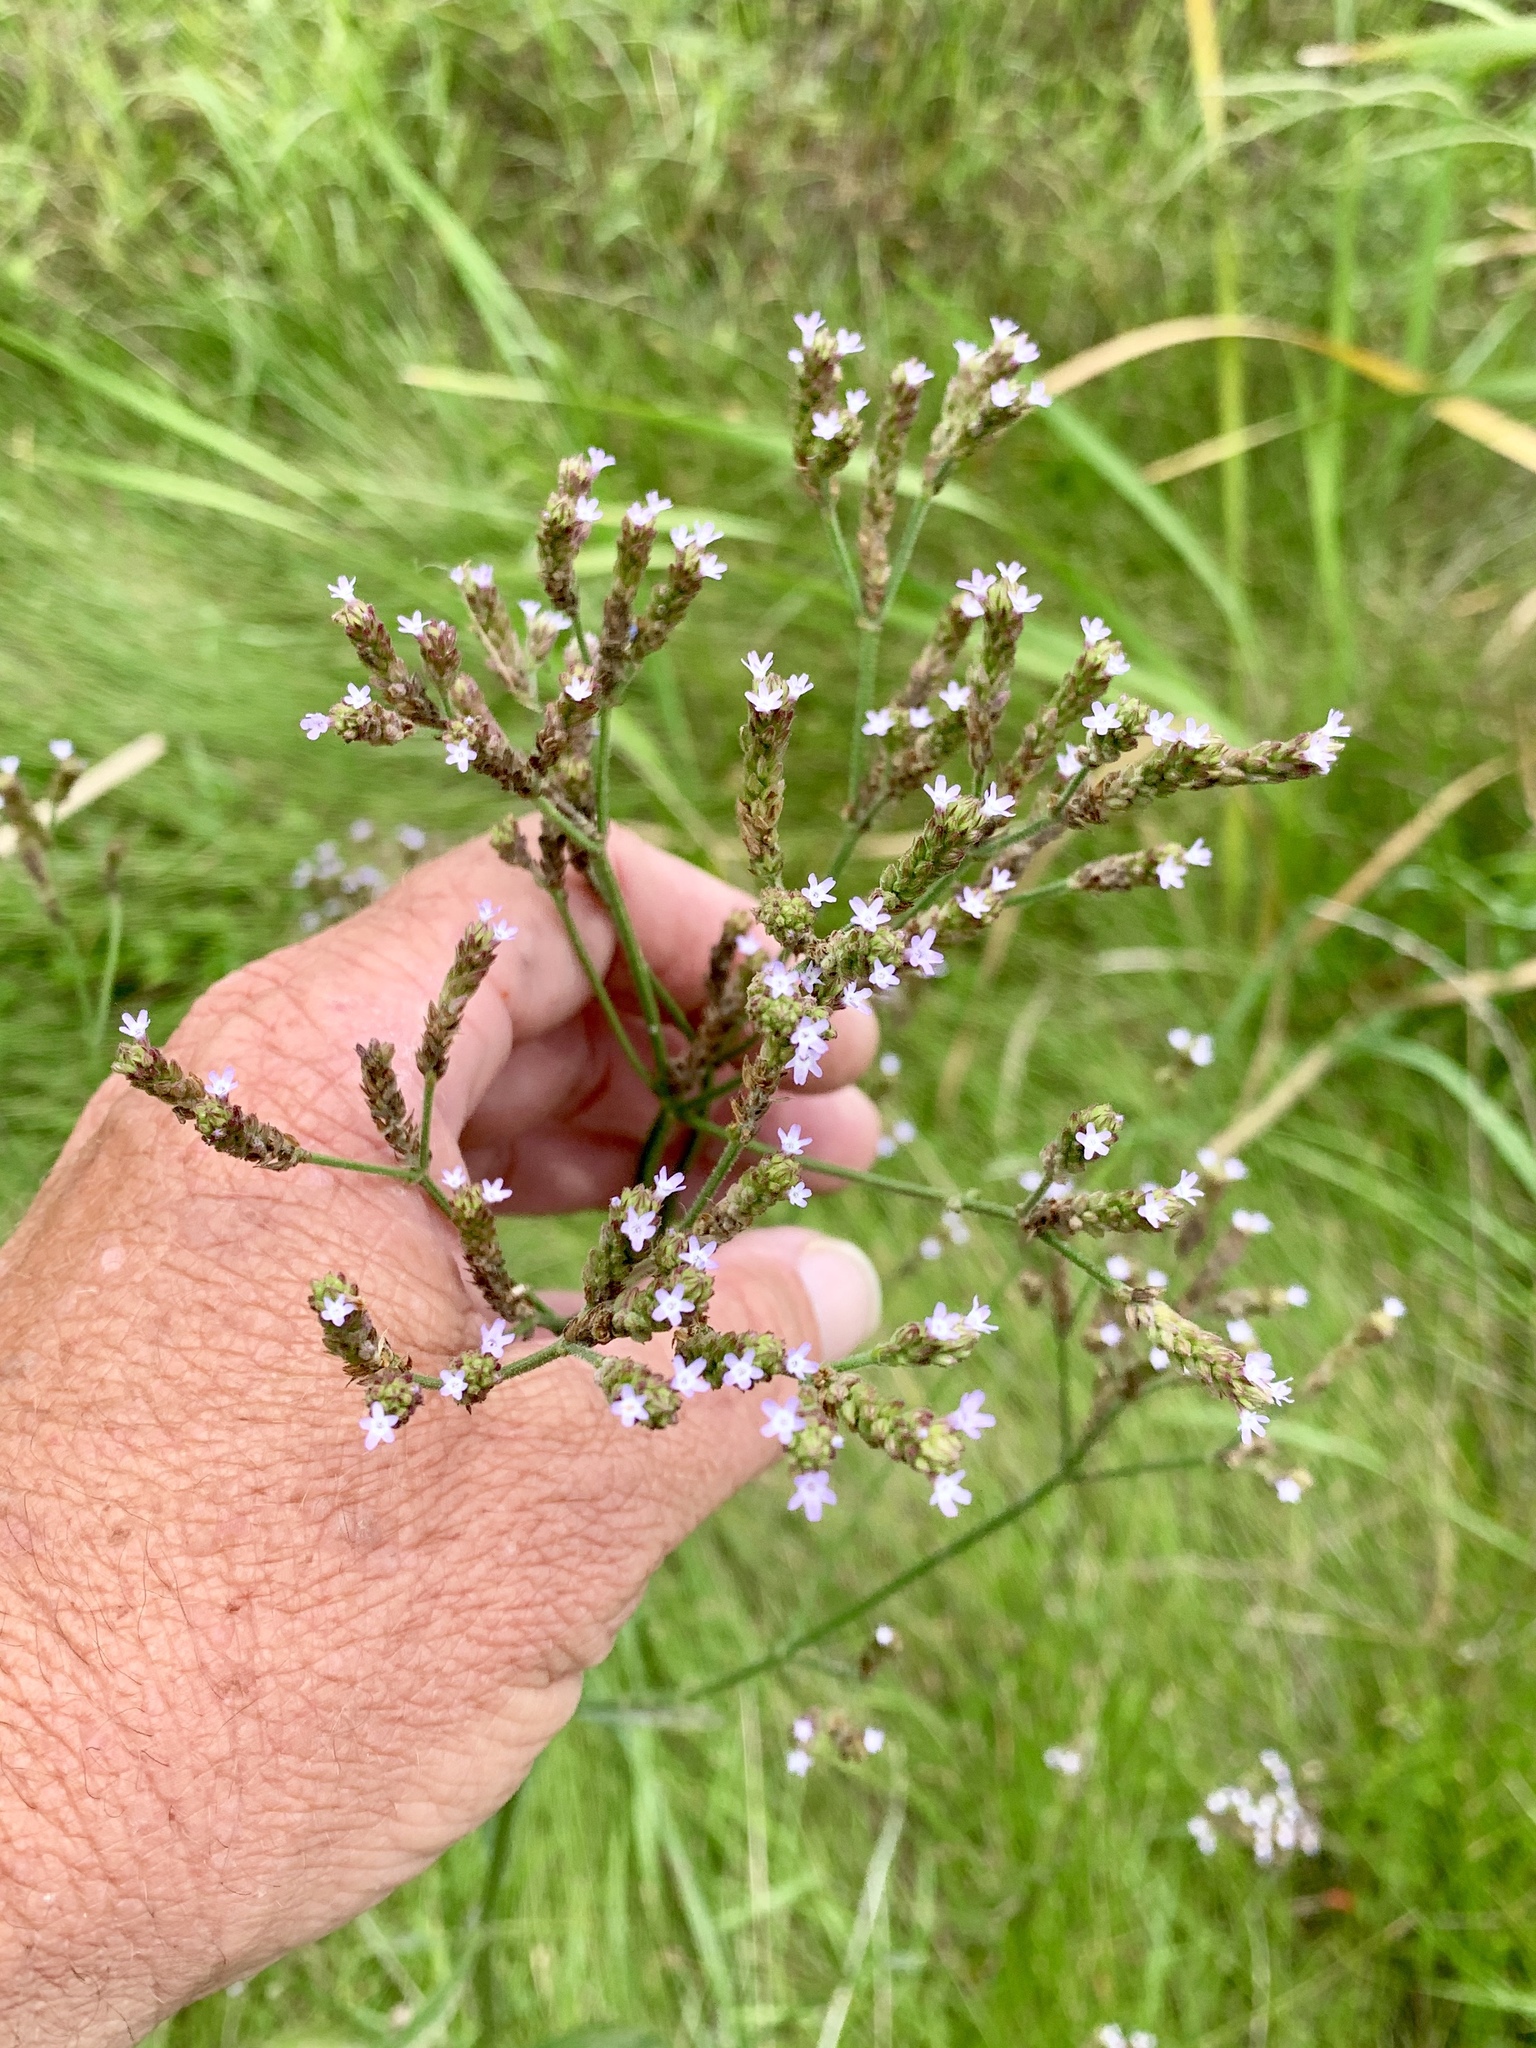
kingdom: Plantae
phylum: Tracheophyta
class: Magnoliopsida
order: Lamiales
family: Verbenaceae
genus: Verbena
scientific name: Verbena brasiliensis
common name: Brazilian vervain
